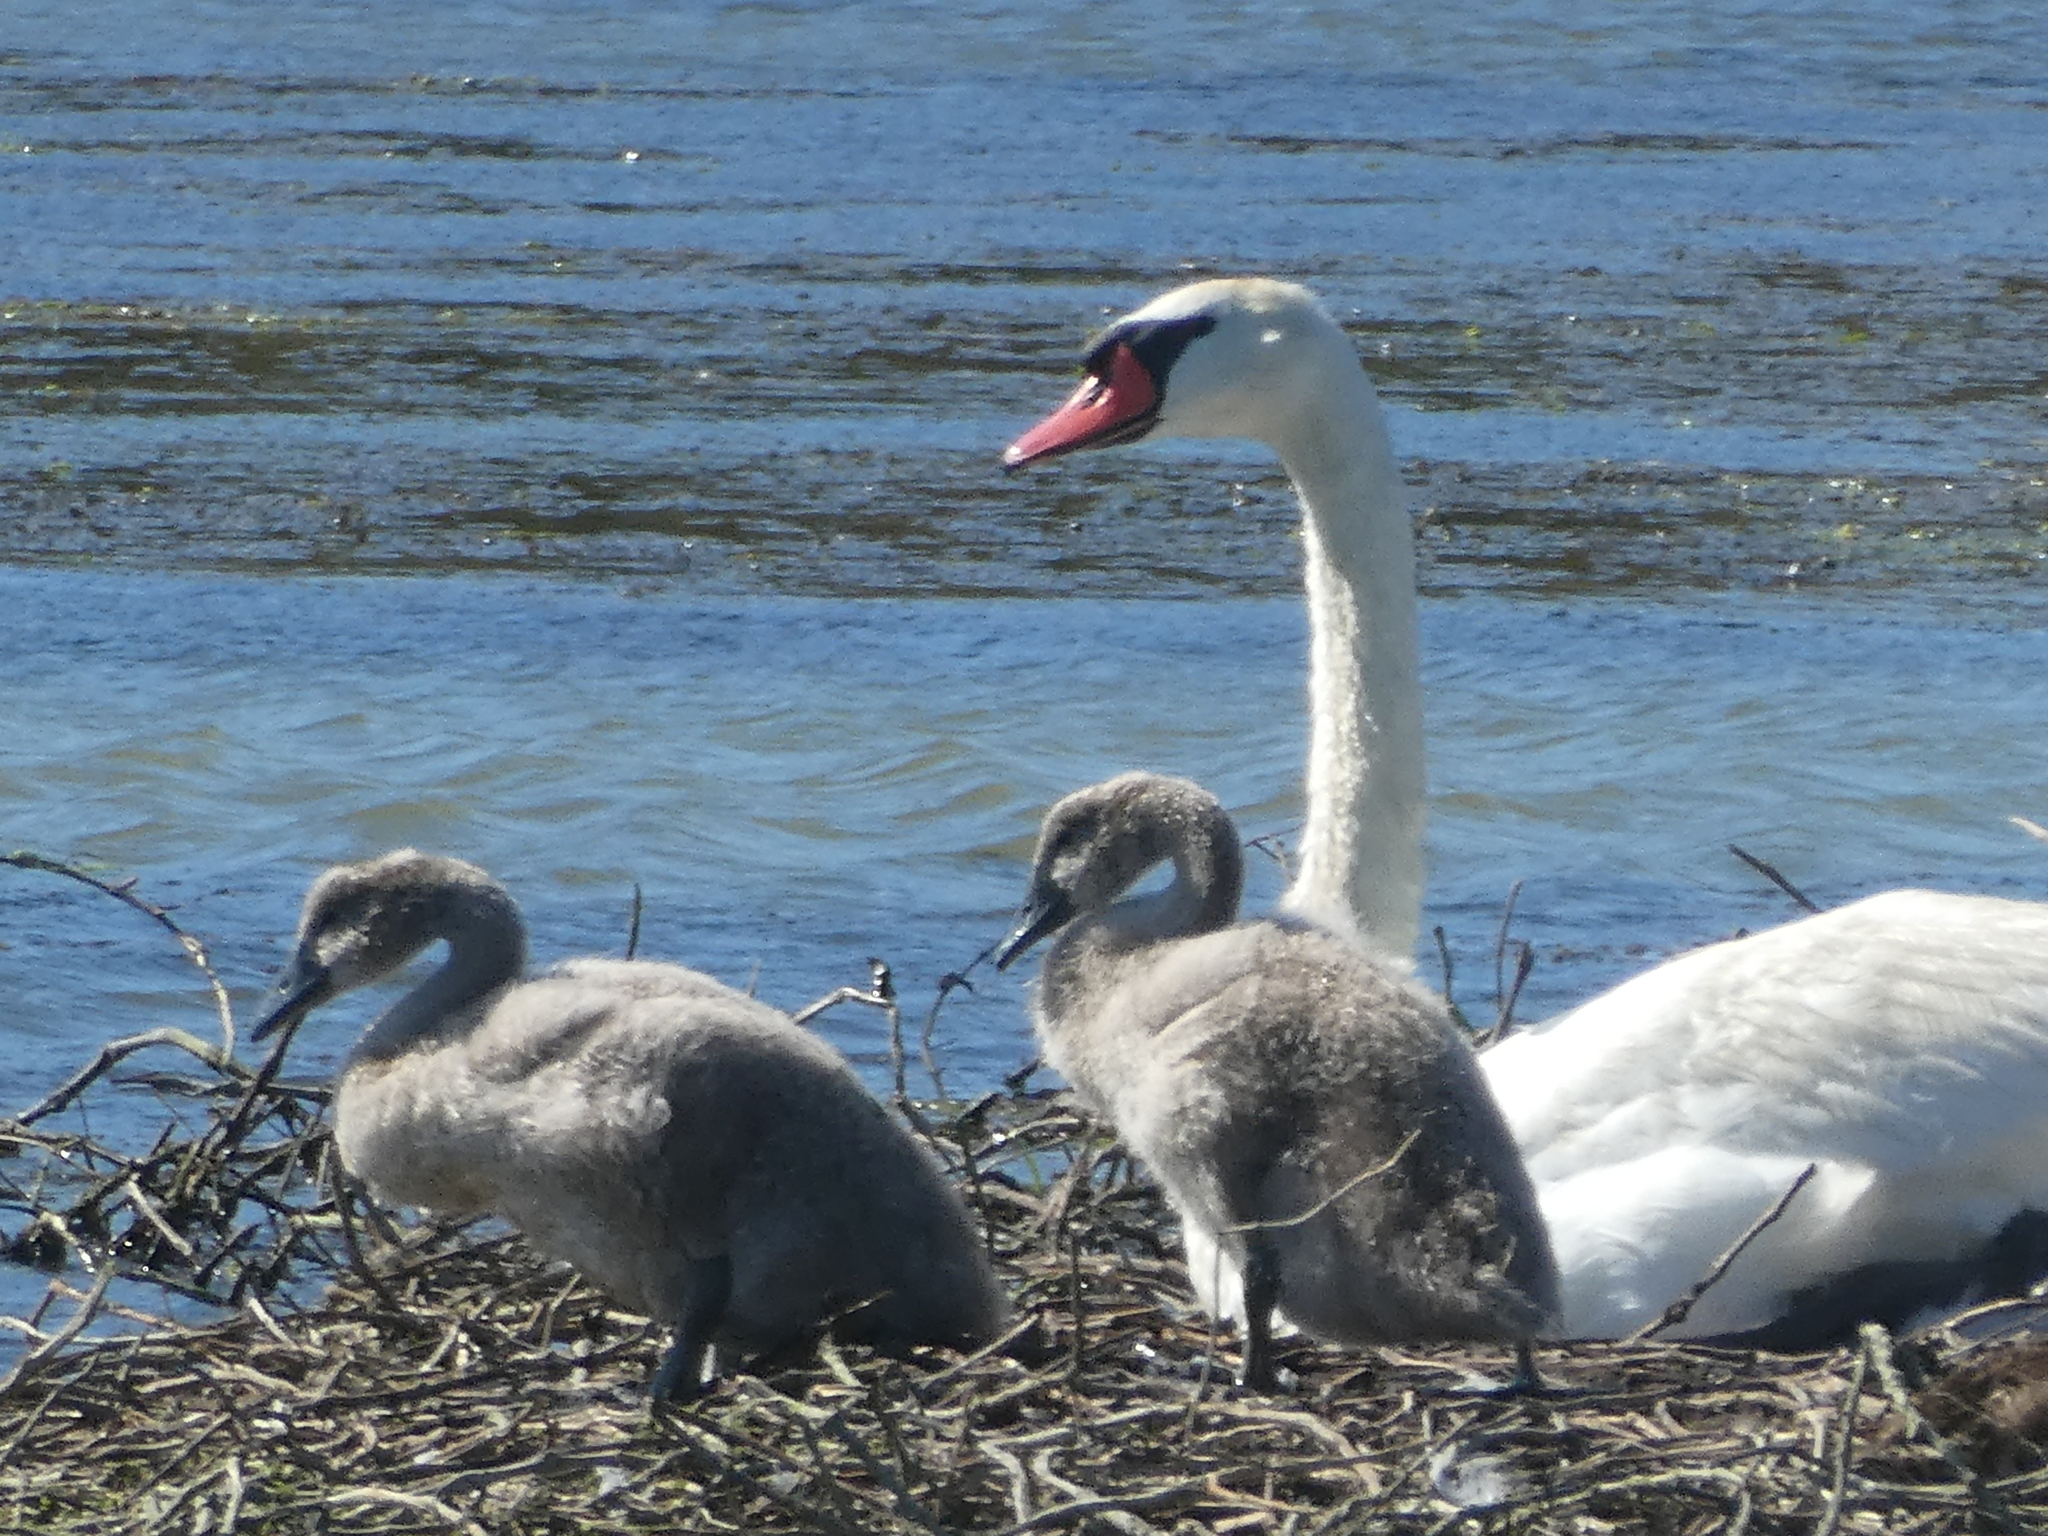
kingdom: Animalia
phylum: Chordata
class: Aves
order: Anseriformes
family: Anatidae
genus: Cygnus
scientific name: Cygnus olor
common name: Mute swan
